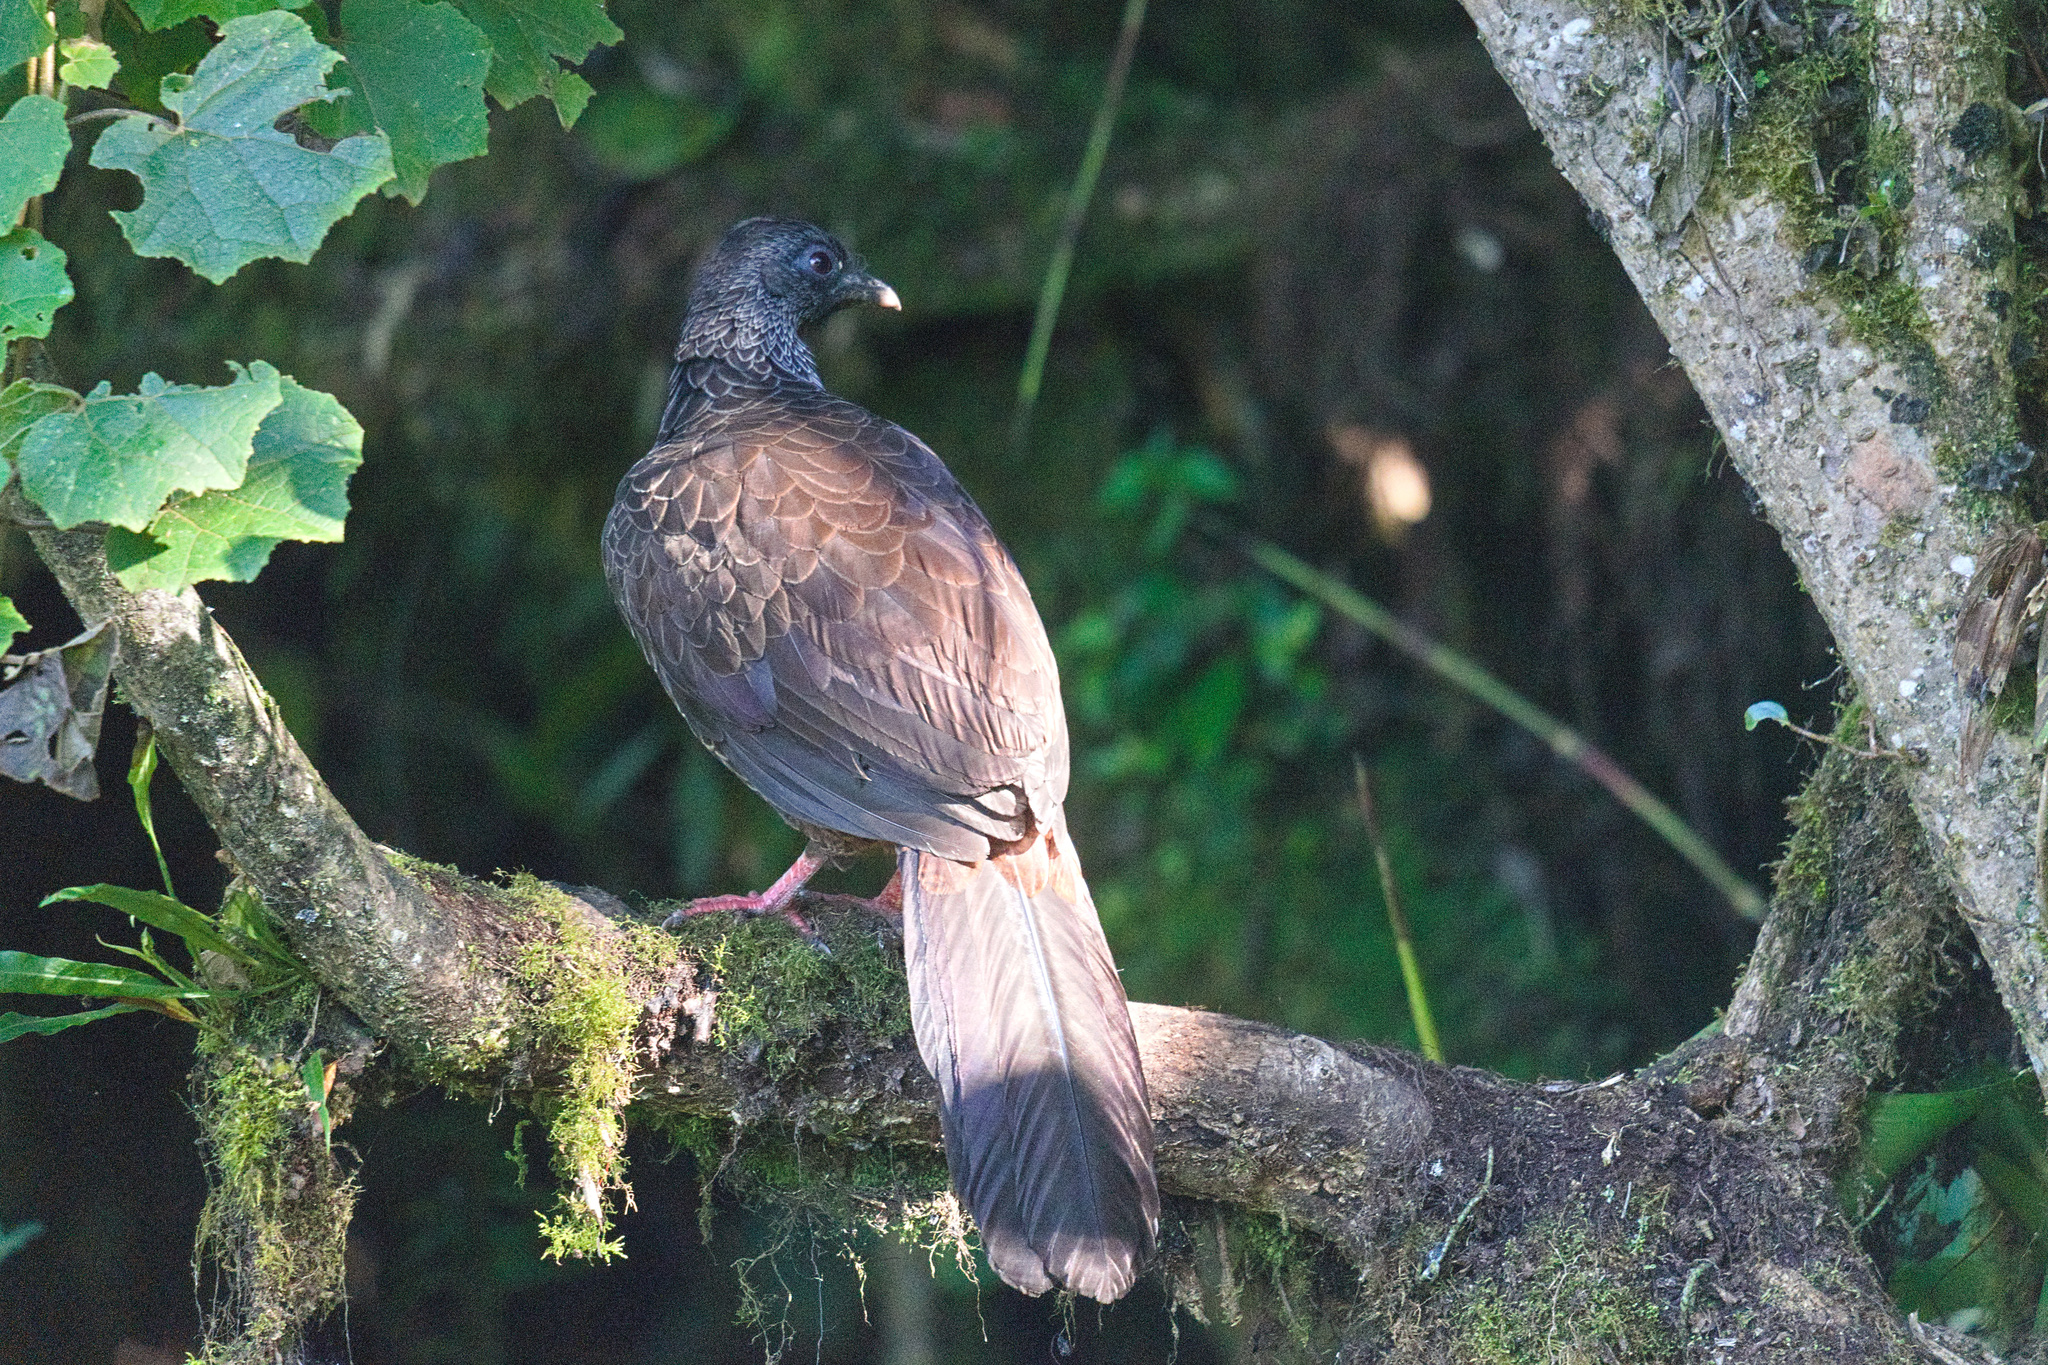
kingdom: Animalia
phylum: Chordata
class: Aves
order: Galliformes
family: Cracidae
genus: Penelope
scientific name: Penelope montagnii
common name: Andean guan
